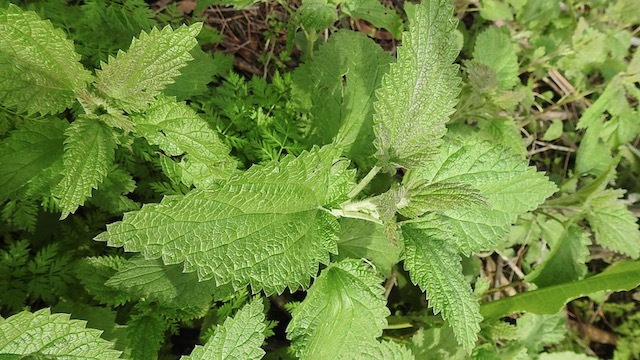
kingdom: Plantae
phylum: Tracheophyta
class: Magnoliopsida
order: Rosales
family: Urticaceae
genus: Urtica
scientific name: Urtica dioica
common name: Common nettle
